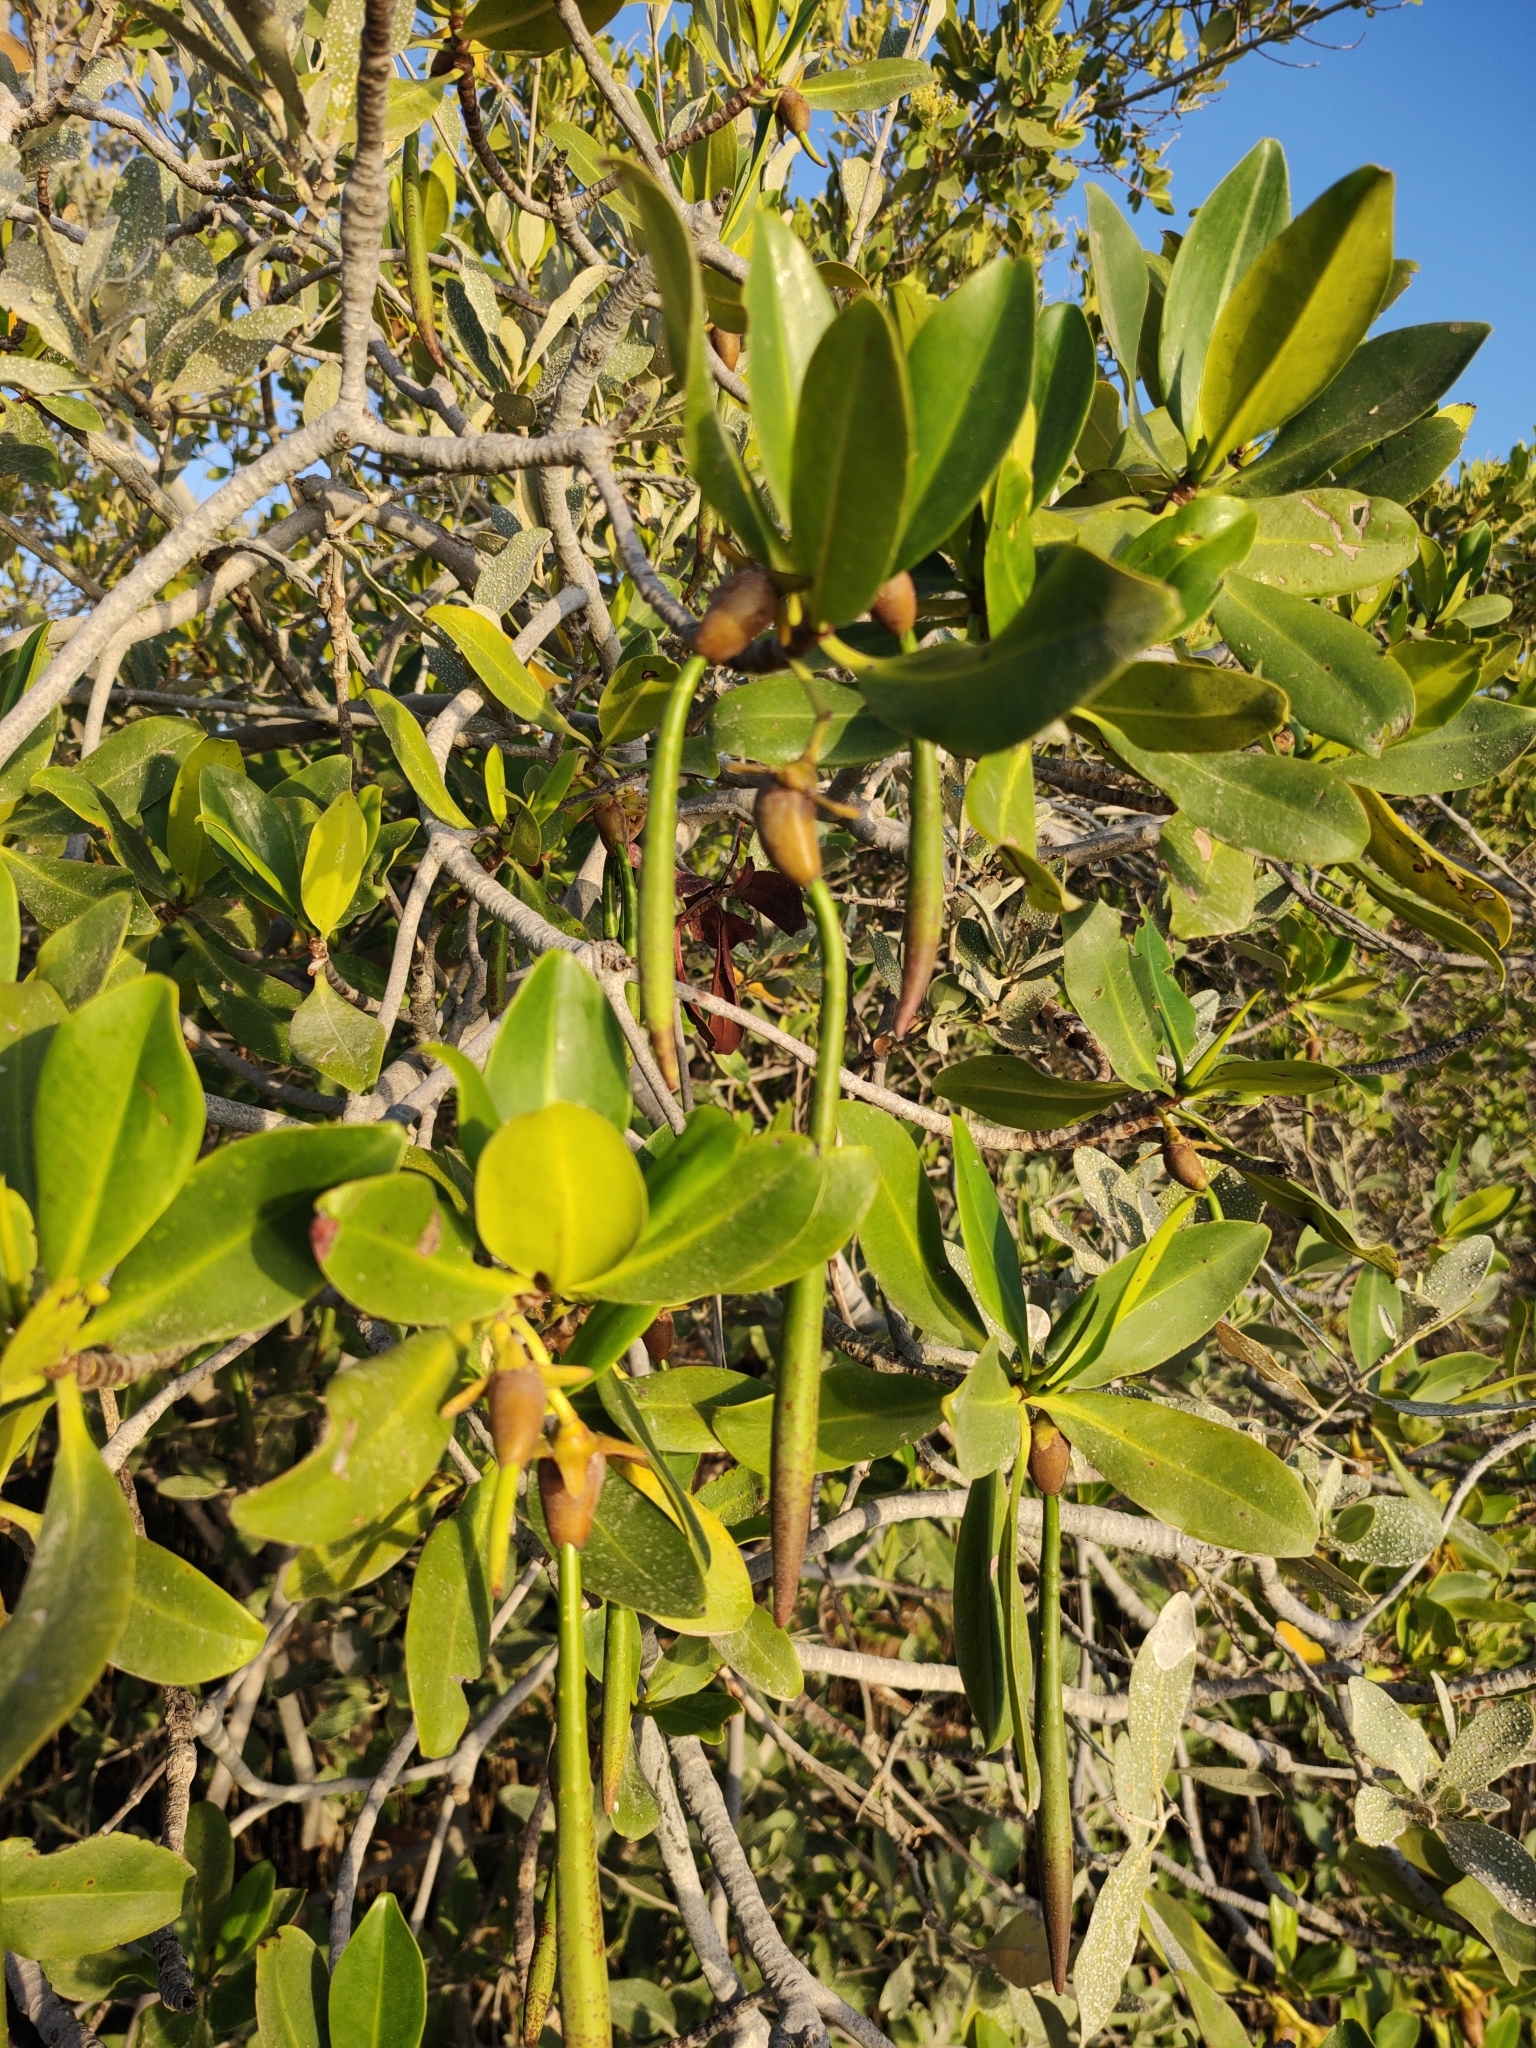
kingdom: Plantae
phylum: Tracheophyta
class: Magnoliopsida
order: Malpighiales
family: Rhizophoraceae
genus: Rhizophora
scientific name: Rhizophora mangle
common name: Red mangrove
